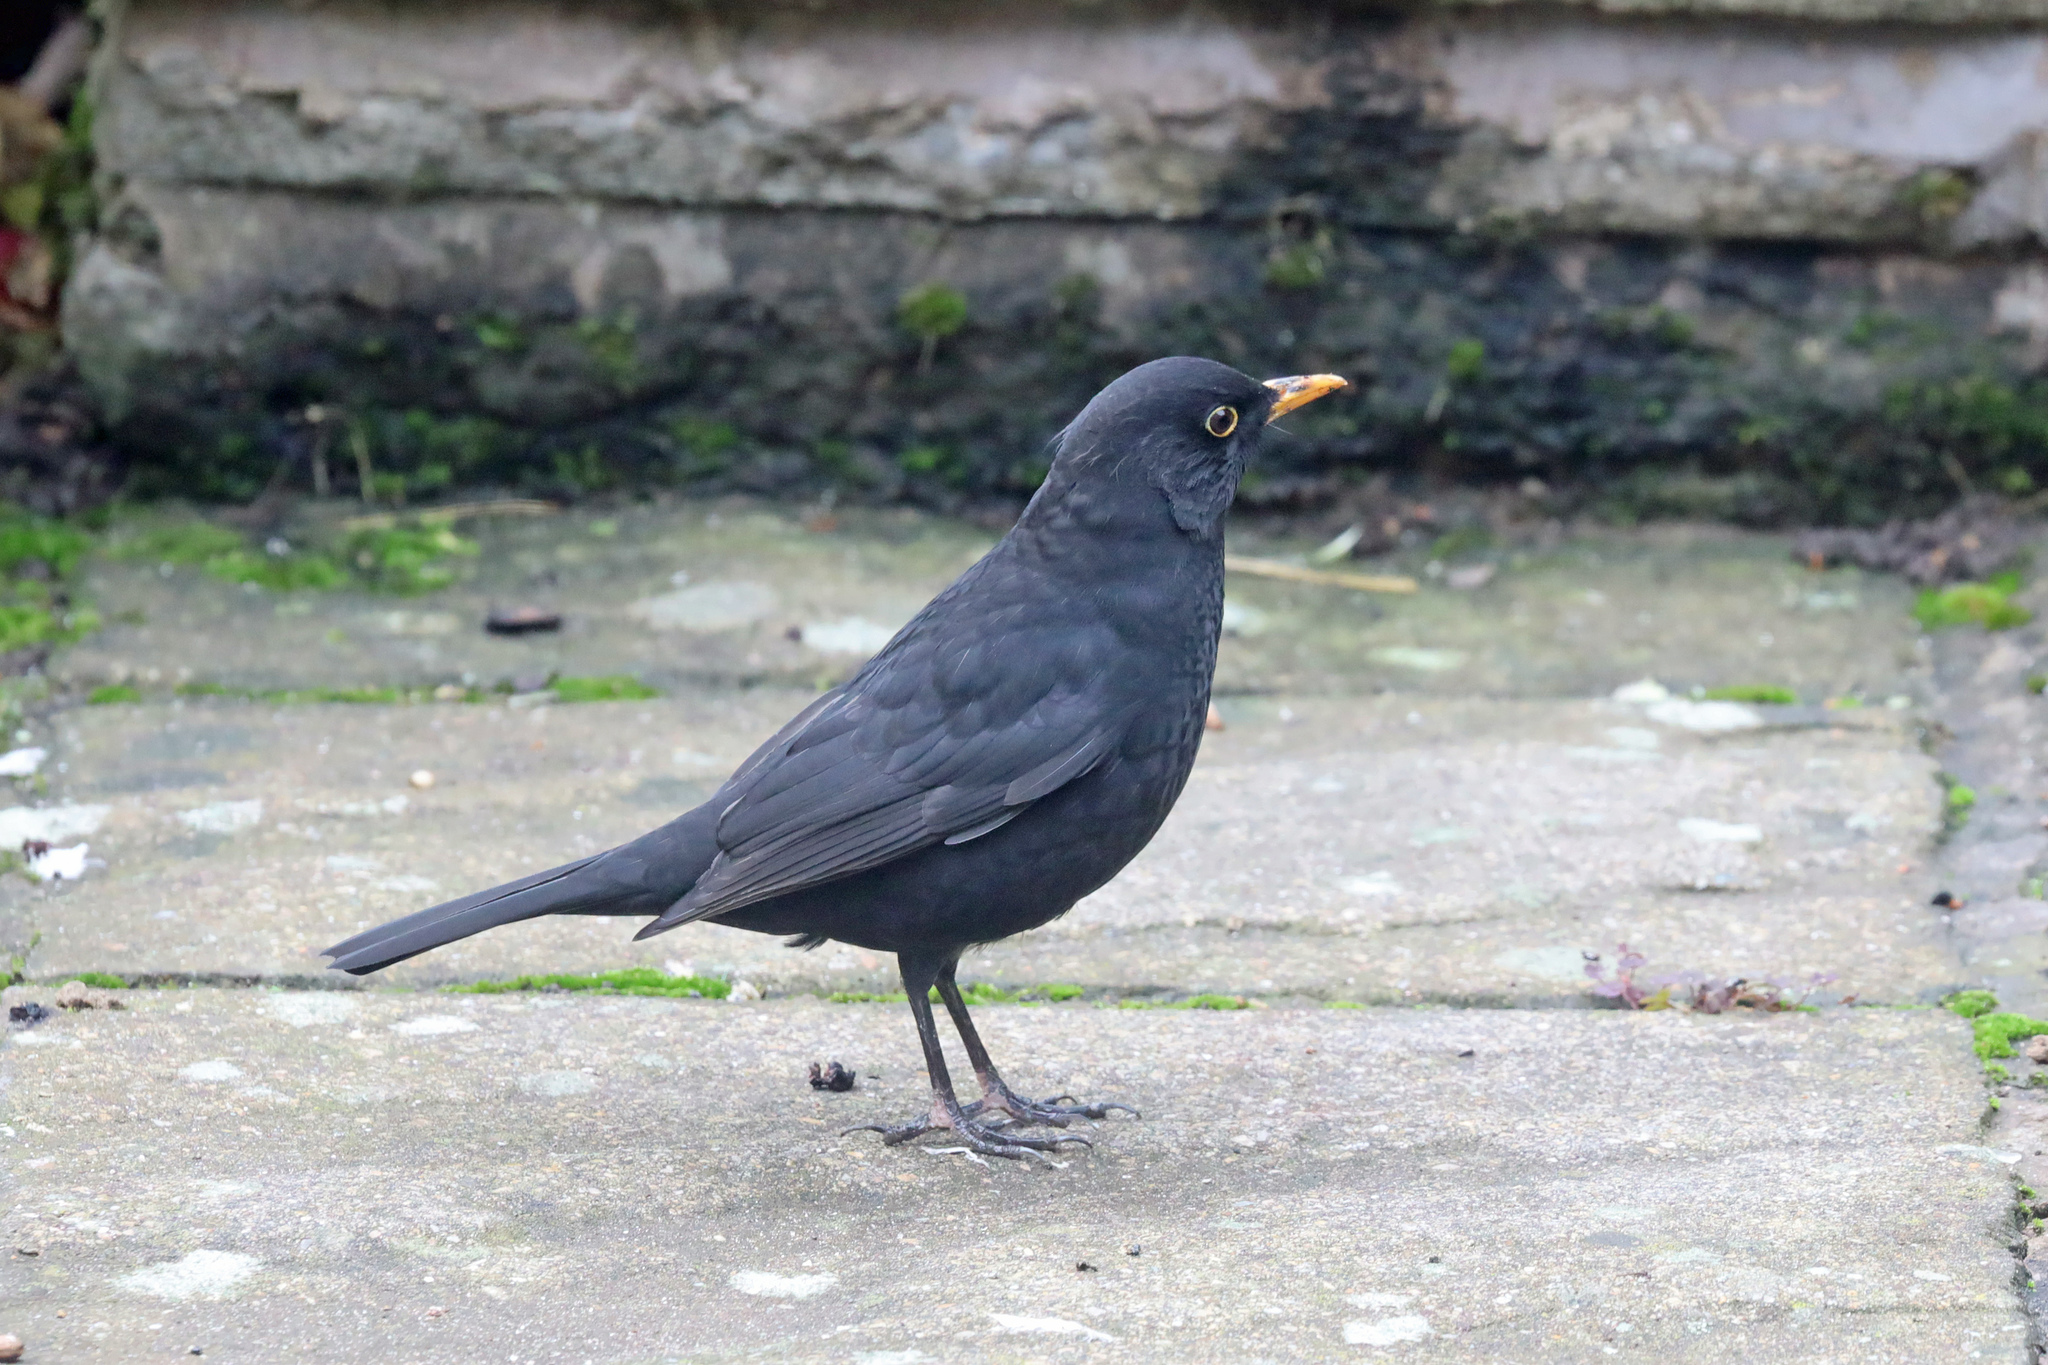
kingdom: Animalia
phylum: Chordata
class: Aves
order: Passeriformes
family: Turdidae
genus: Turdus
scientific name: Turdus merula
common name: Common blackbird
